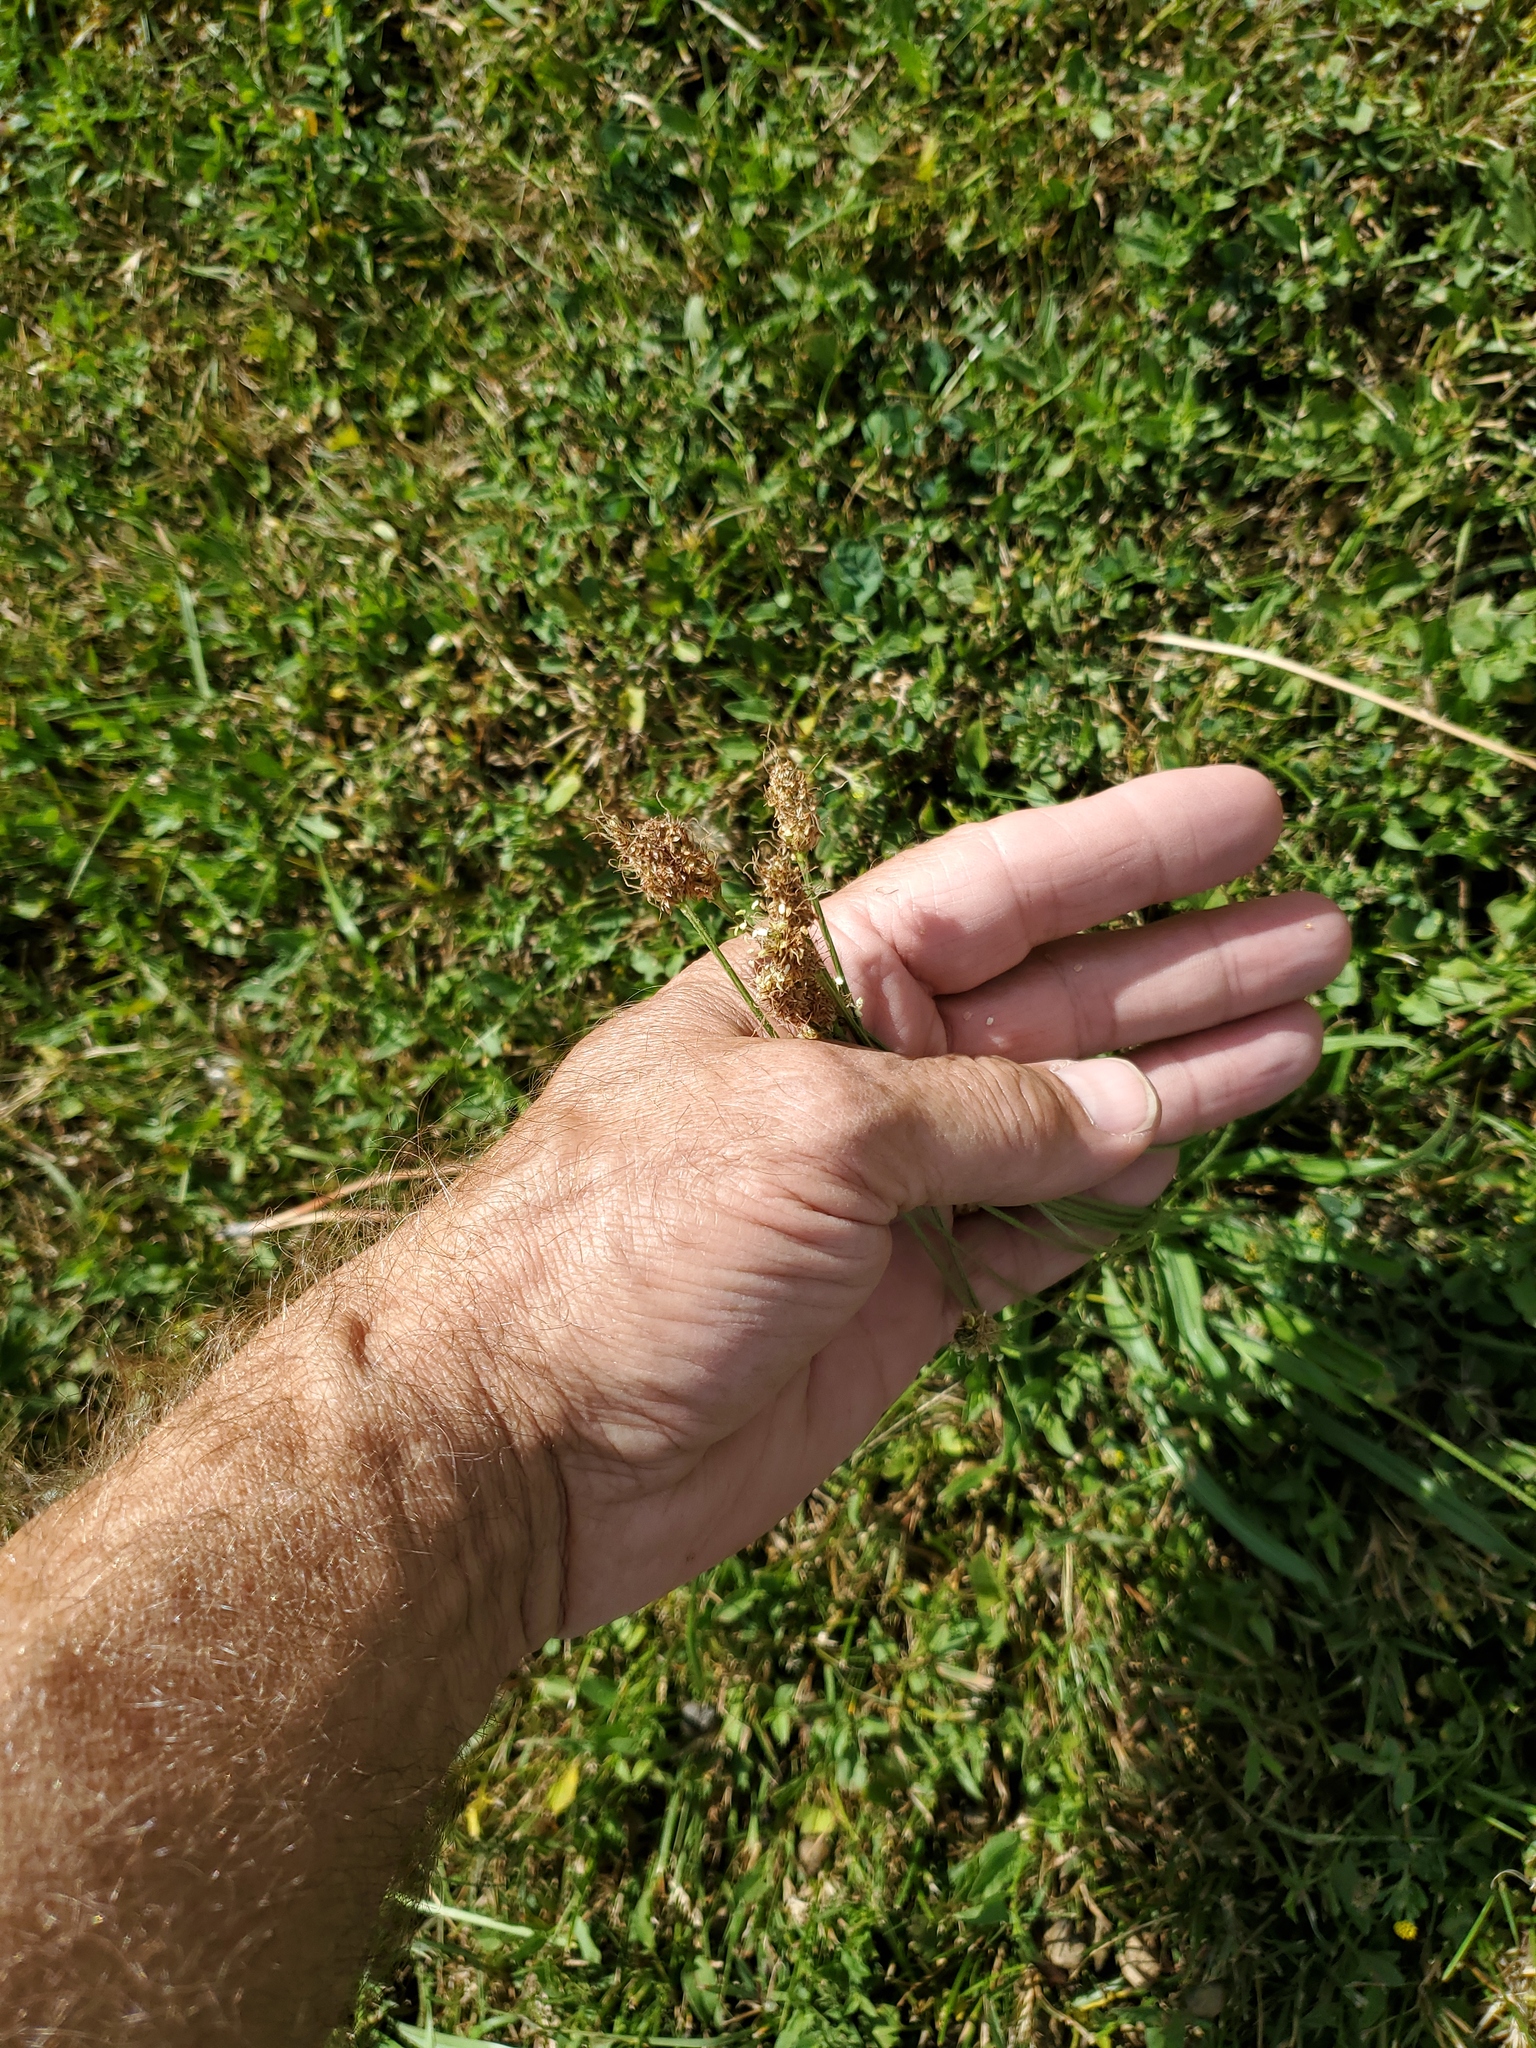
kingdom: Plantae
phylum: Tracheophyta
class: Magnoliopsida
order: Lamiales
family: Plantaginaceae
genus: Plantago
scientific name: Plantago lanceolata
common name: Ribwort plantain
